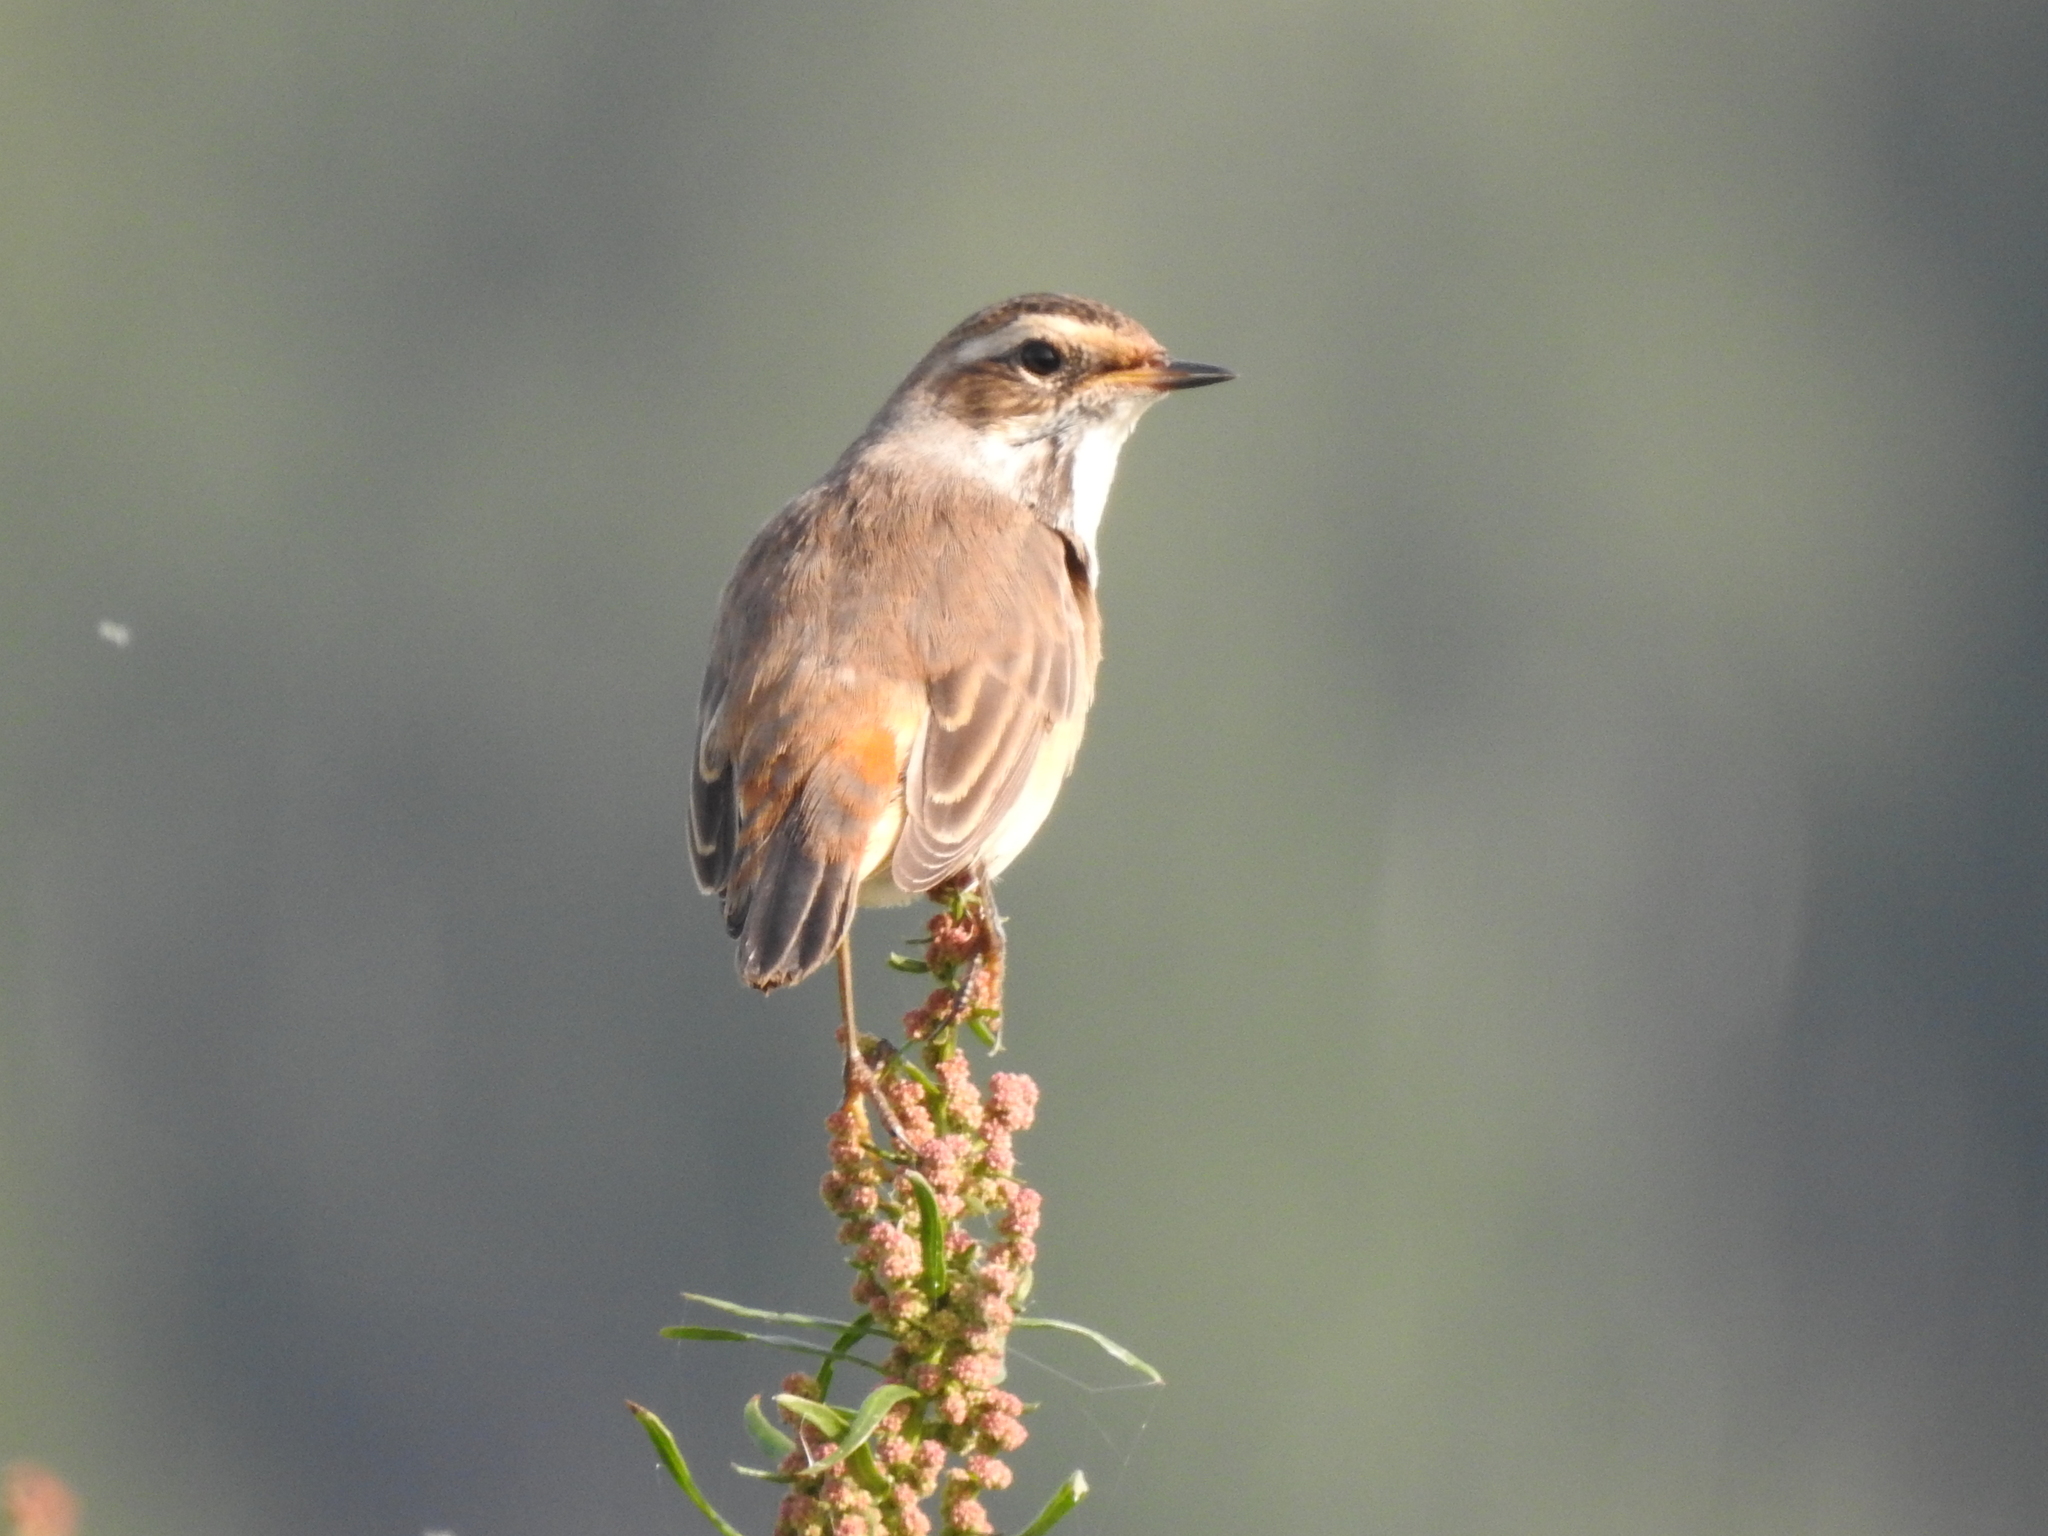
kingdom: Animalia
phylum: Chordata
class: Aves
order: Passeriformes
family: Muscicapidae
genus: Luscinia
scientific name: Luscinia svecica
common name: Bluethroat
